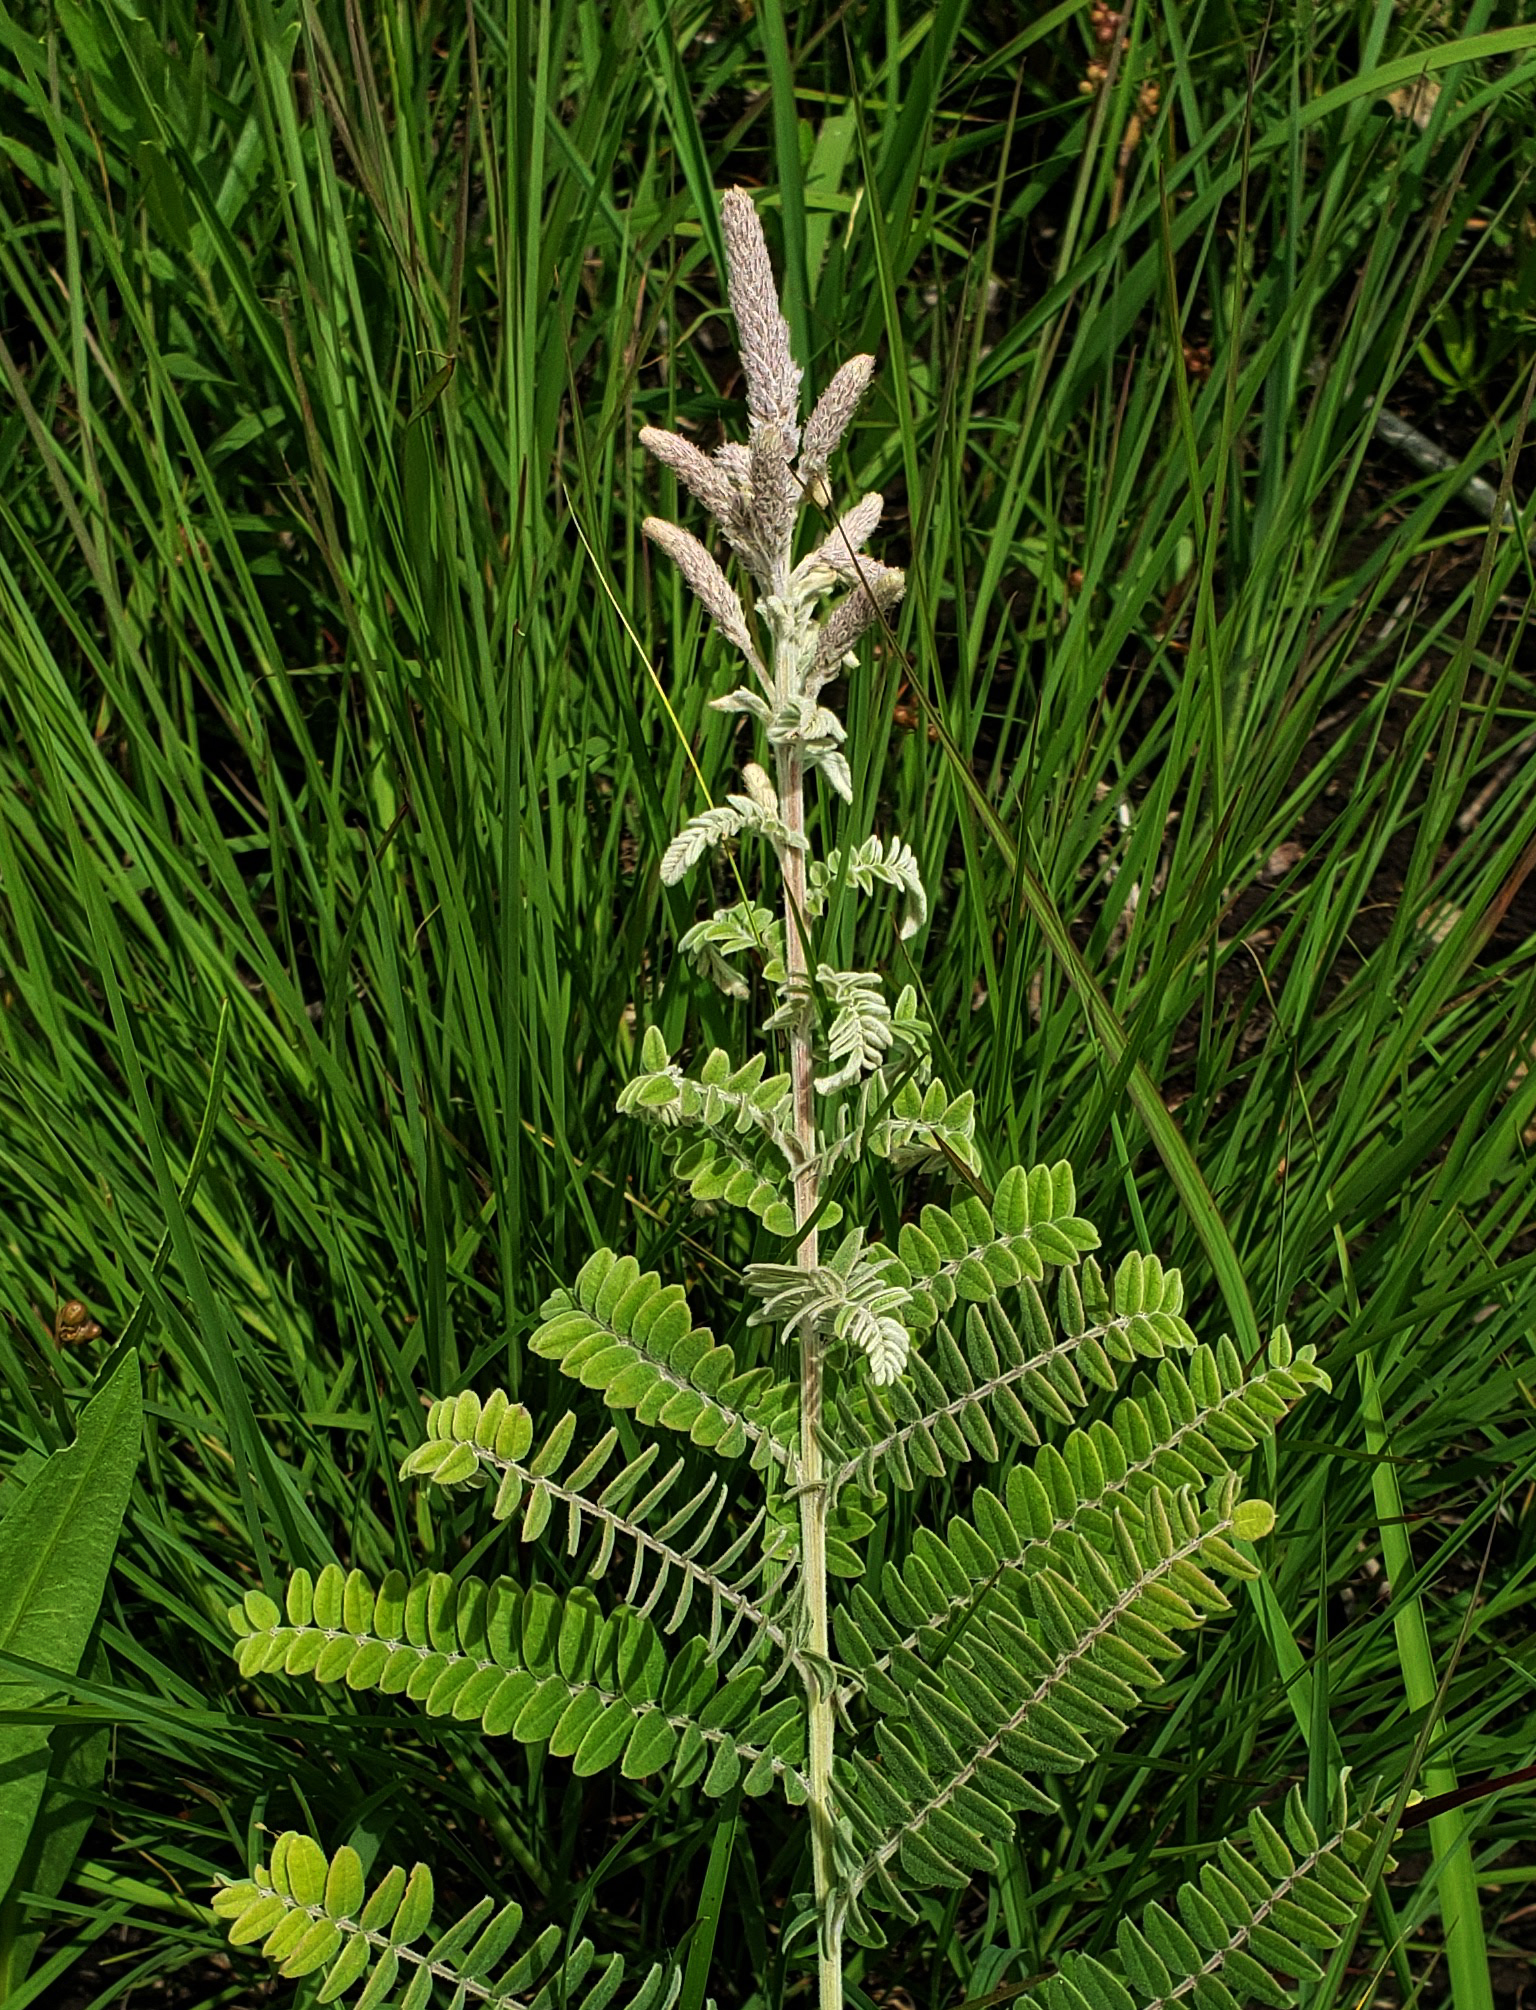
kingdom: Plantae
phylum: Tracheophyta
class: Magnoliopsida
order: Fabales
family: Fabaceae
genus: Amorpha
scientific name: Amorpha canescens
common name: Leadplant
